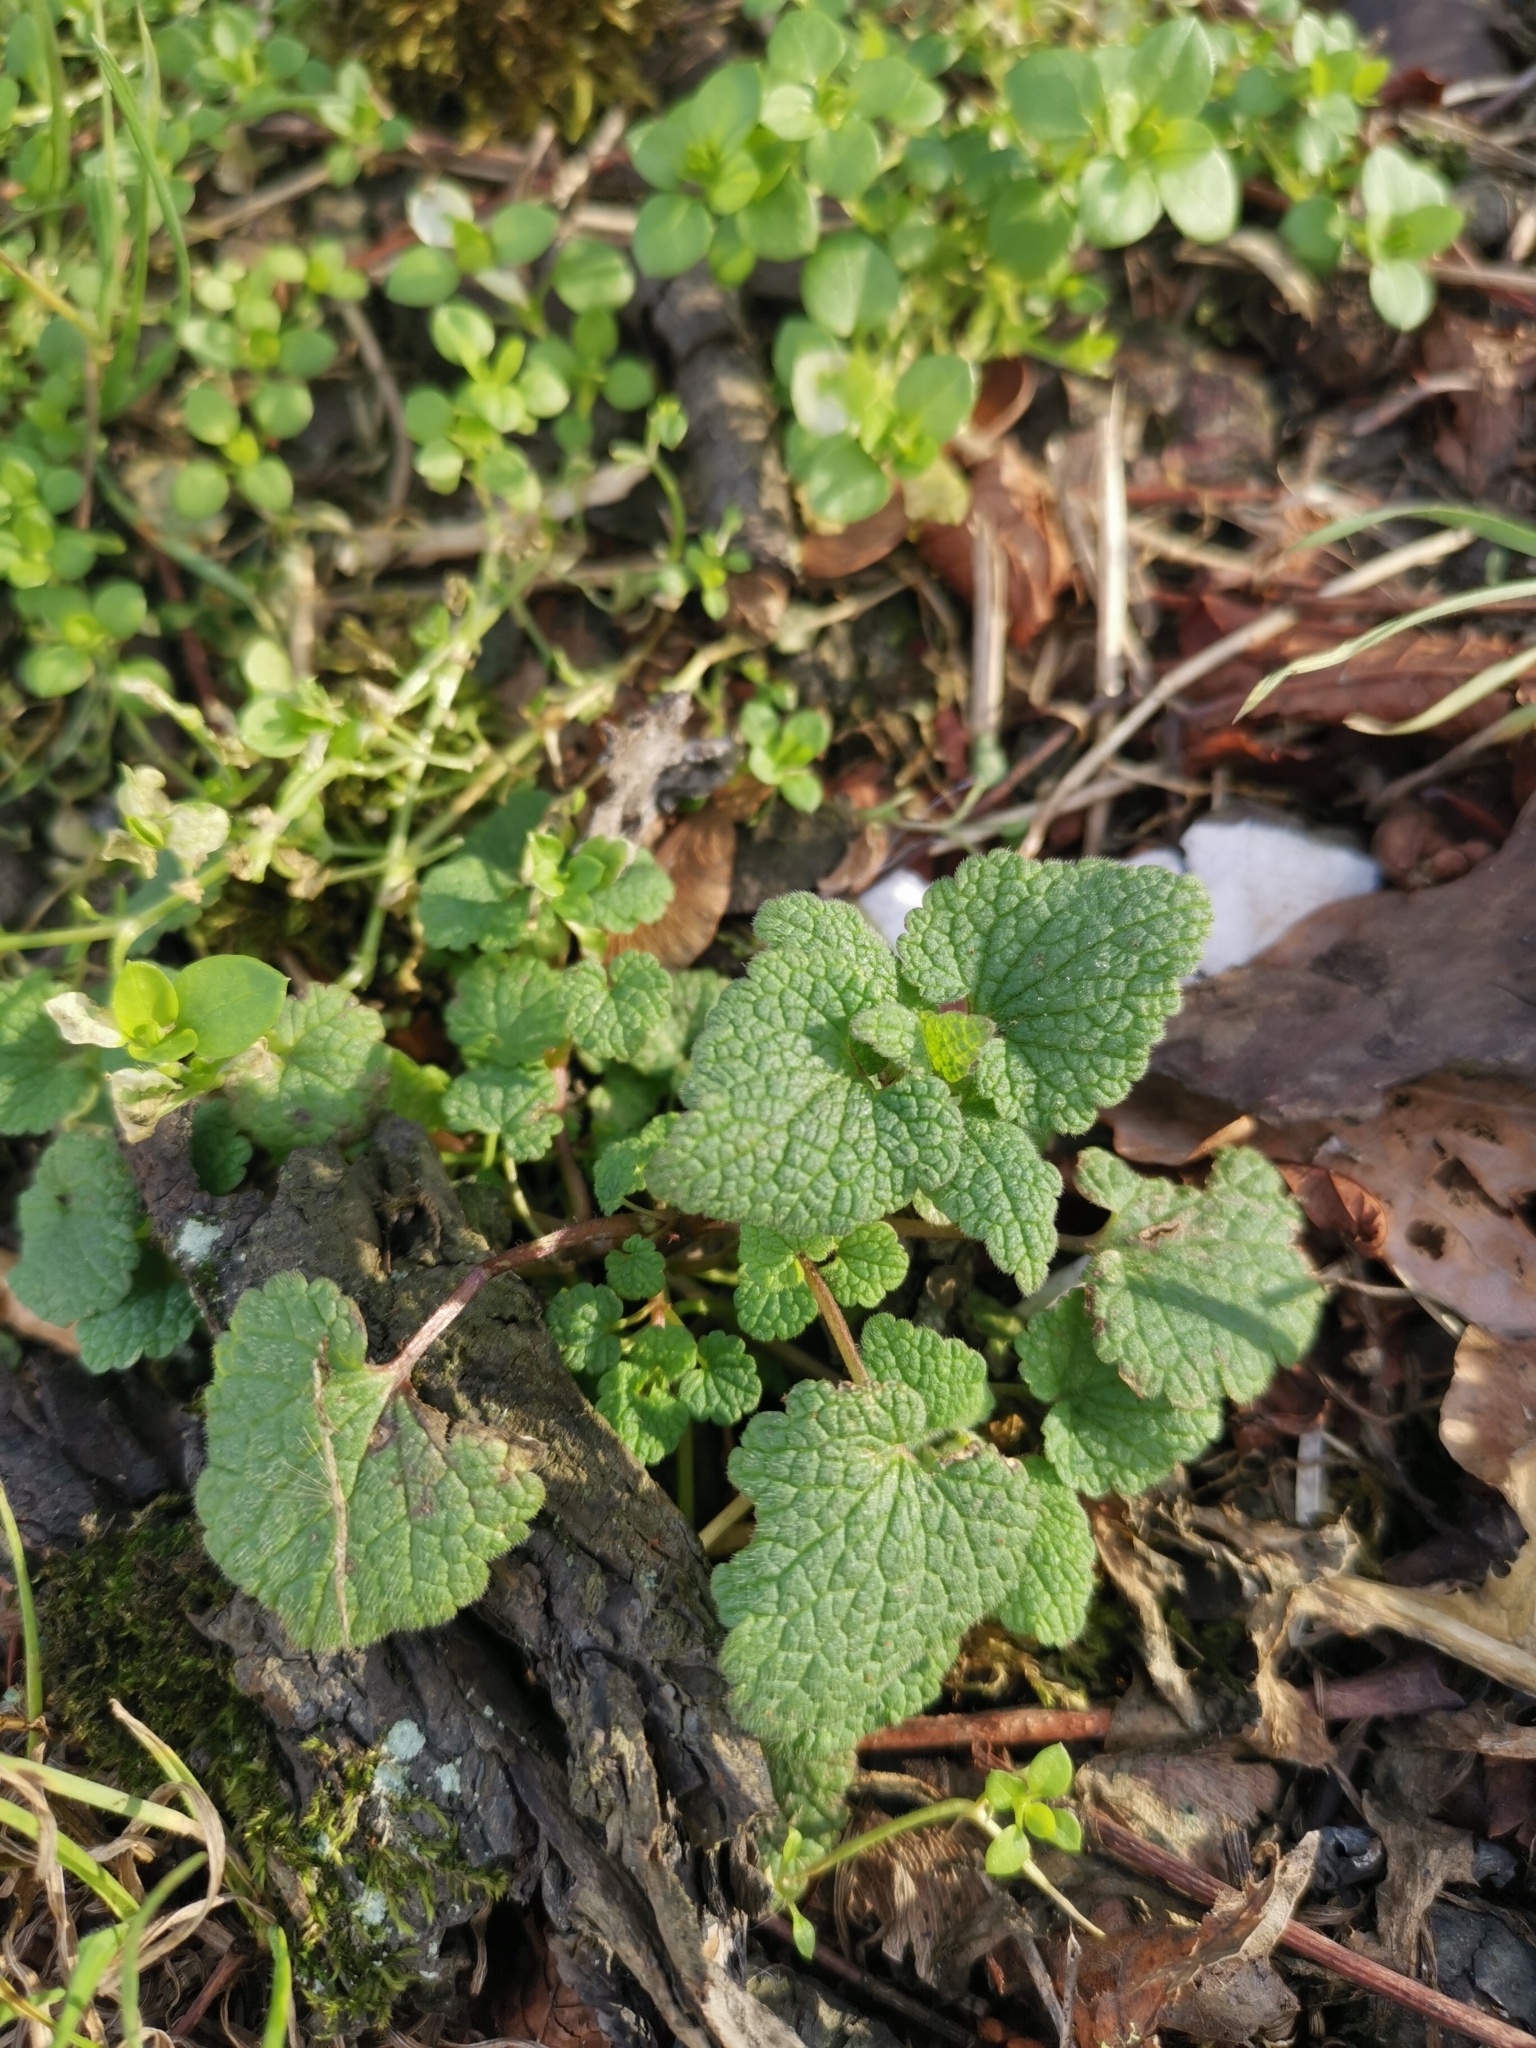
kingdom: Plantae
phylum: Tracheophyta
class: Magnoliopsida
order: Lamiales
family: Lamiaceae
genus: Lamium
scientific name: Lamium purpureum
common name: Red dead-nettle
